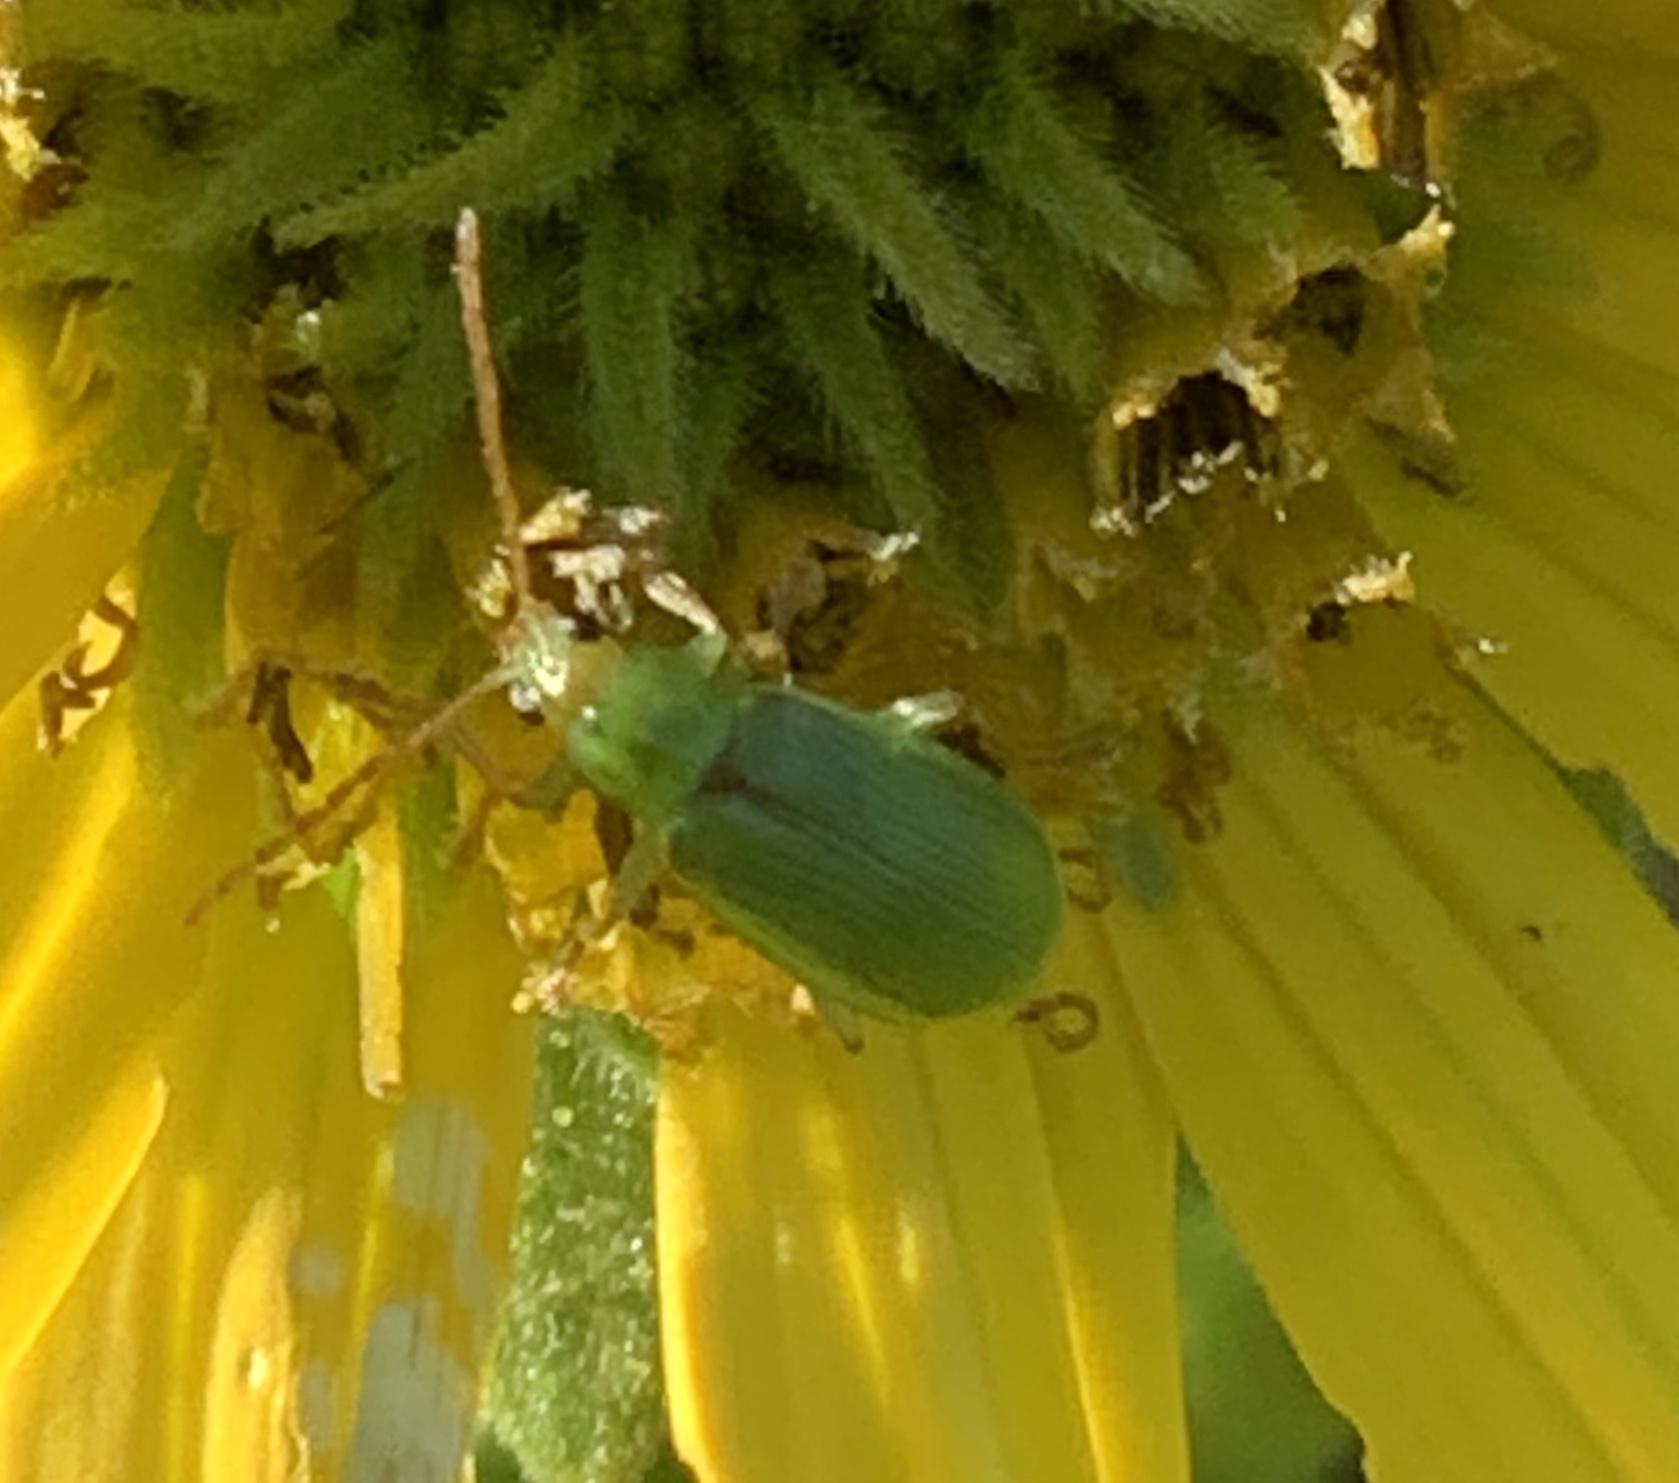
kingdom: Animalia
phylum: Arthropoda
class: Insecta
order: Coleoptera
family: Chrysomelidae
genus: Diabrotica
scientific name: Diabrotica barberi
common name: Northern corn rootworm
